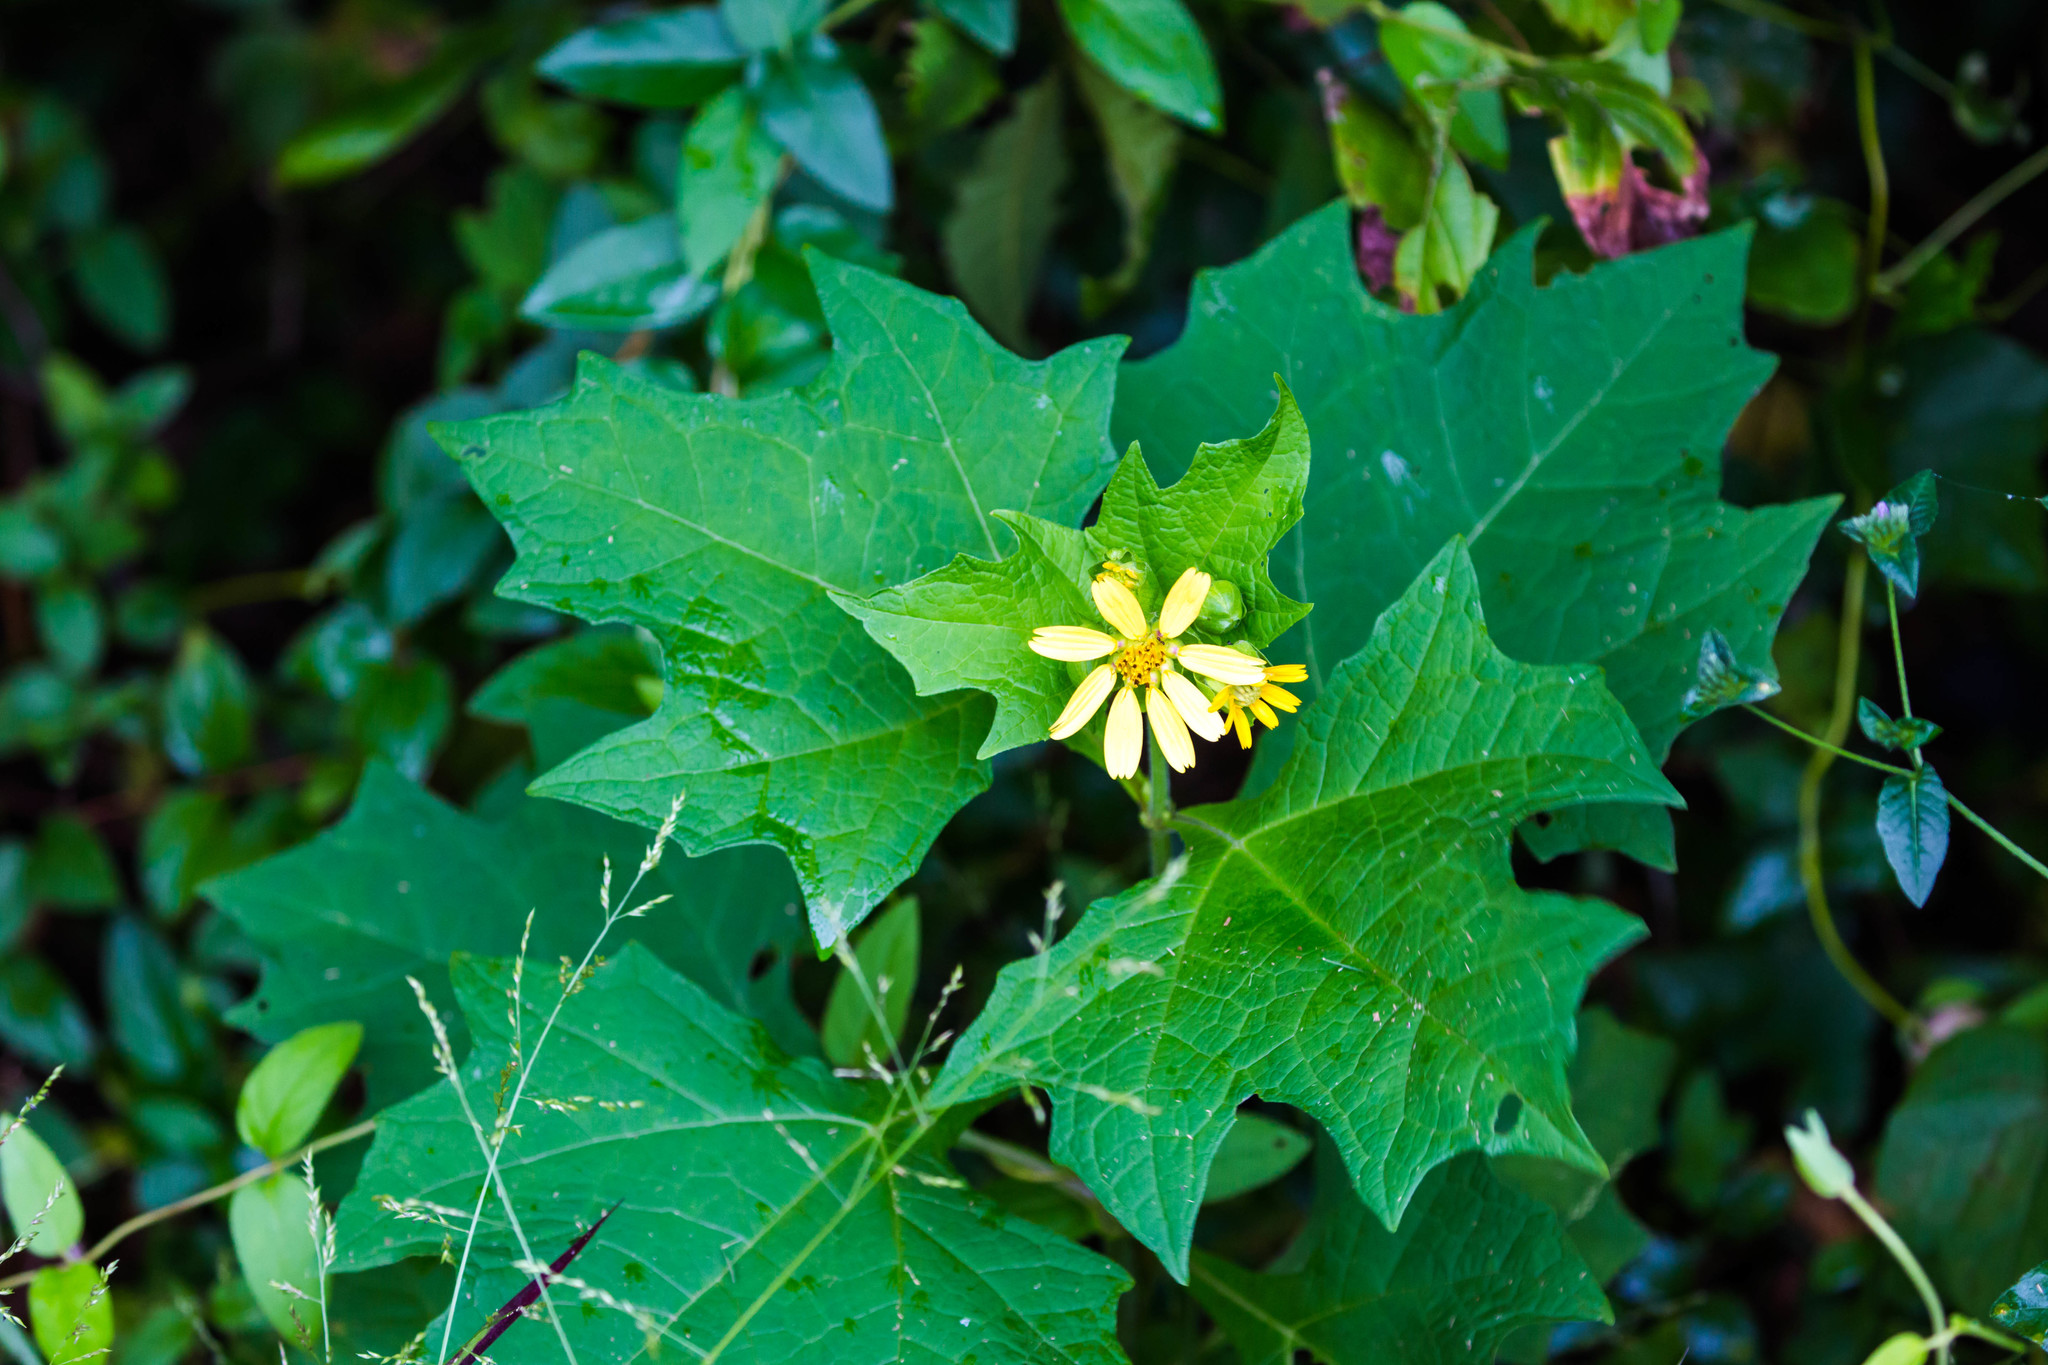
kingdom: Plantae
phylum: Tracheophyta
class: Magnoliopsida
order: Asterales
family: Asteraceae
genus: Smallanthus
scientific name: Smallanthus uvedalia
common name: Bear's-foot
